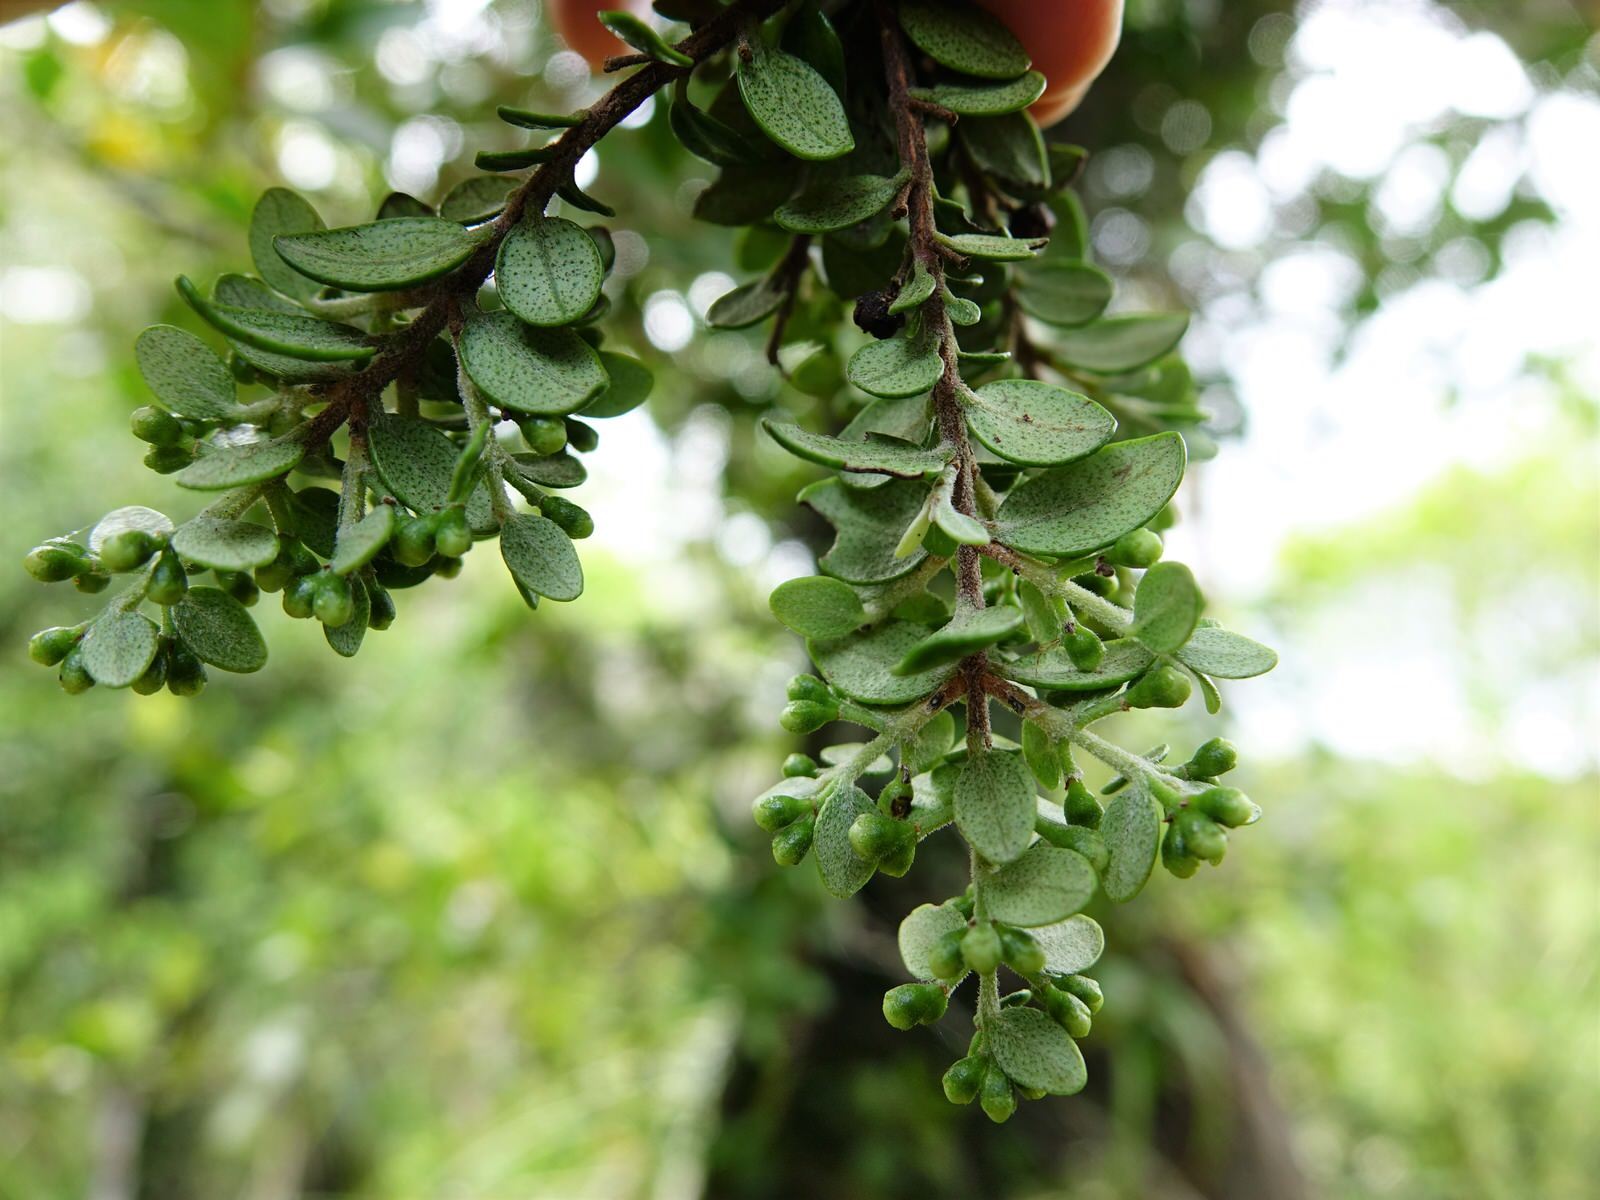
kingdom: Plantae
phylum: Tracheophyta
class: Magnoliopsida
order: Myrtales
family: Myrtaceae
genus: Metrosideros
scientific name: Metrosideros perforata
